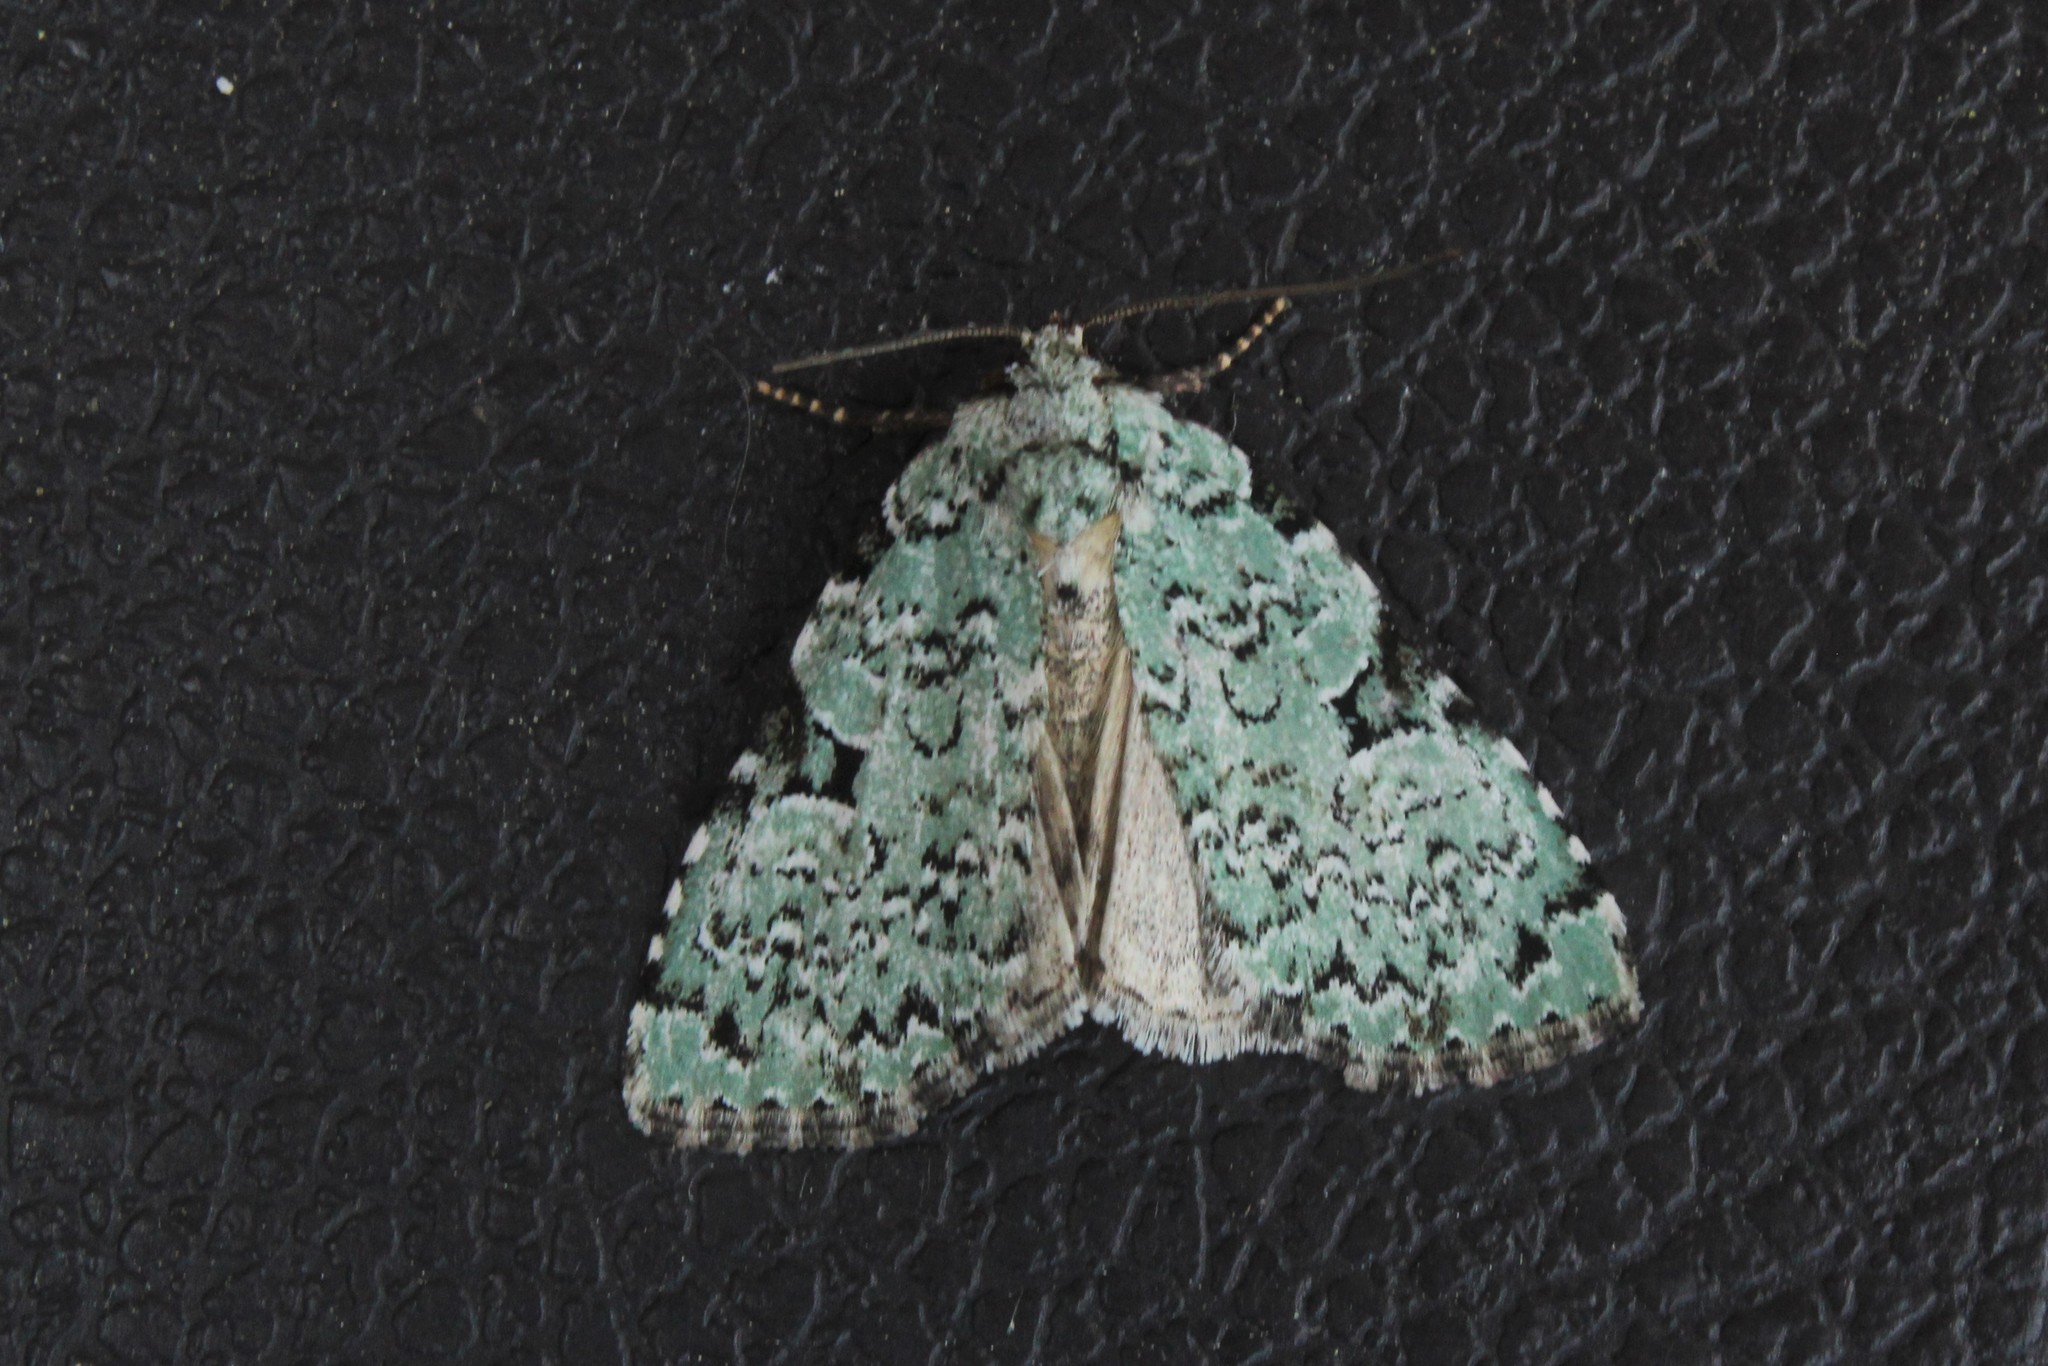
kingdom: Animalia
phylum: Arthropoda
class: Insecta
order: Lepidoptera
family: Noctuidae
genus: Leuconycta
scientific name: Leuconycta diphteroides
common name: Green leuconycta moth
